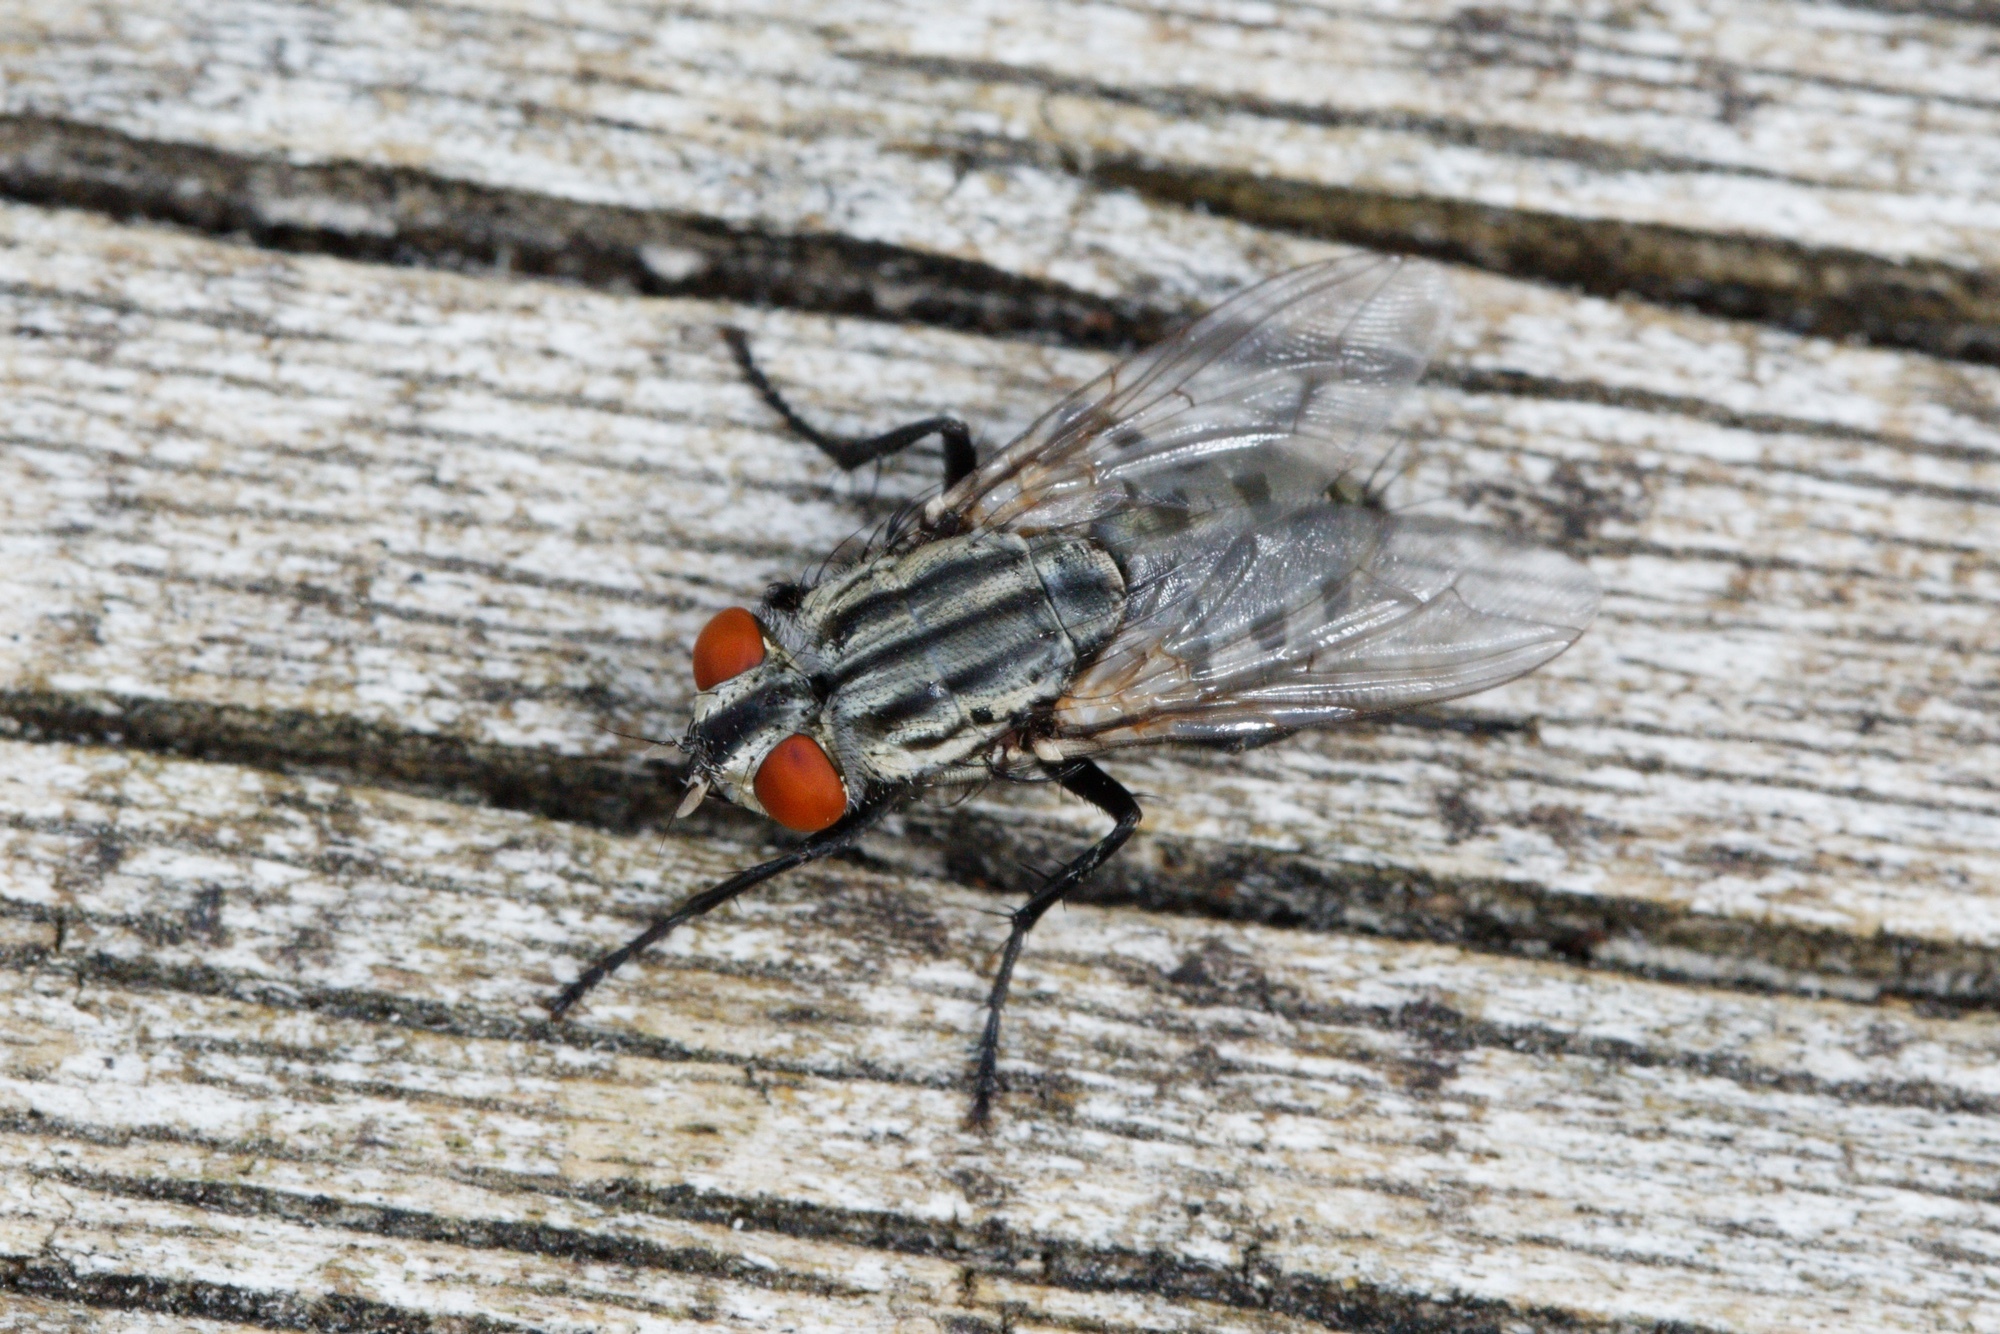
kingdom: Animalia
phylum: Arthropoda
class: Insecta
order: Diptera
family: Sarcophagidae
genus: Sarcophaga
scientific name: Sarcophaga crassipalpis
